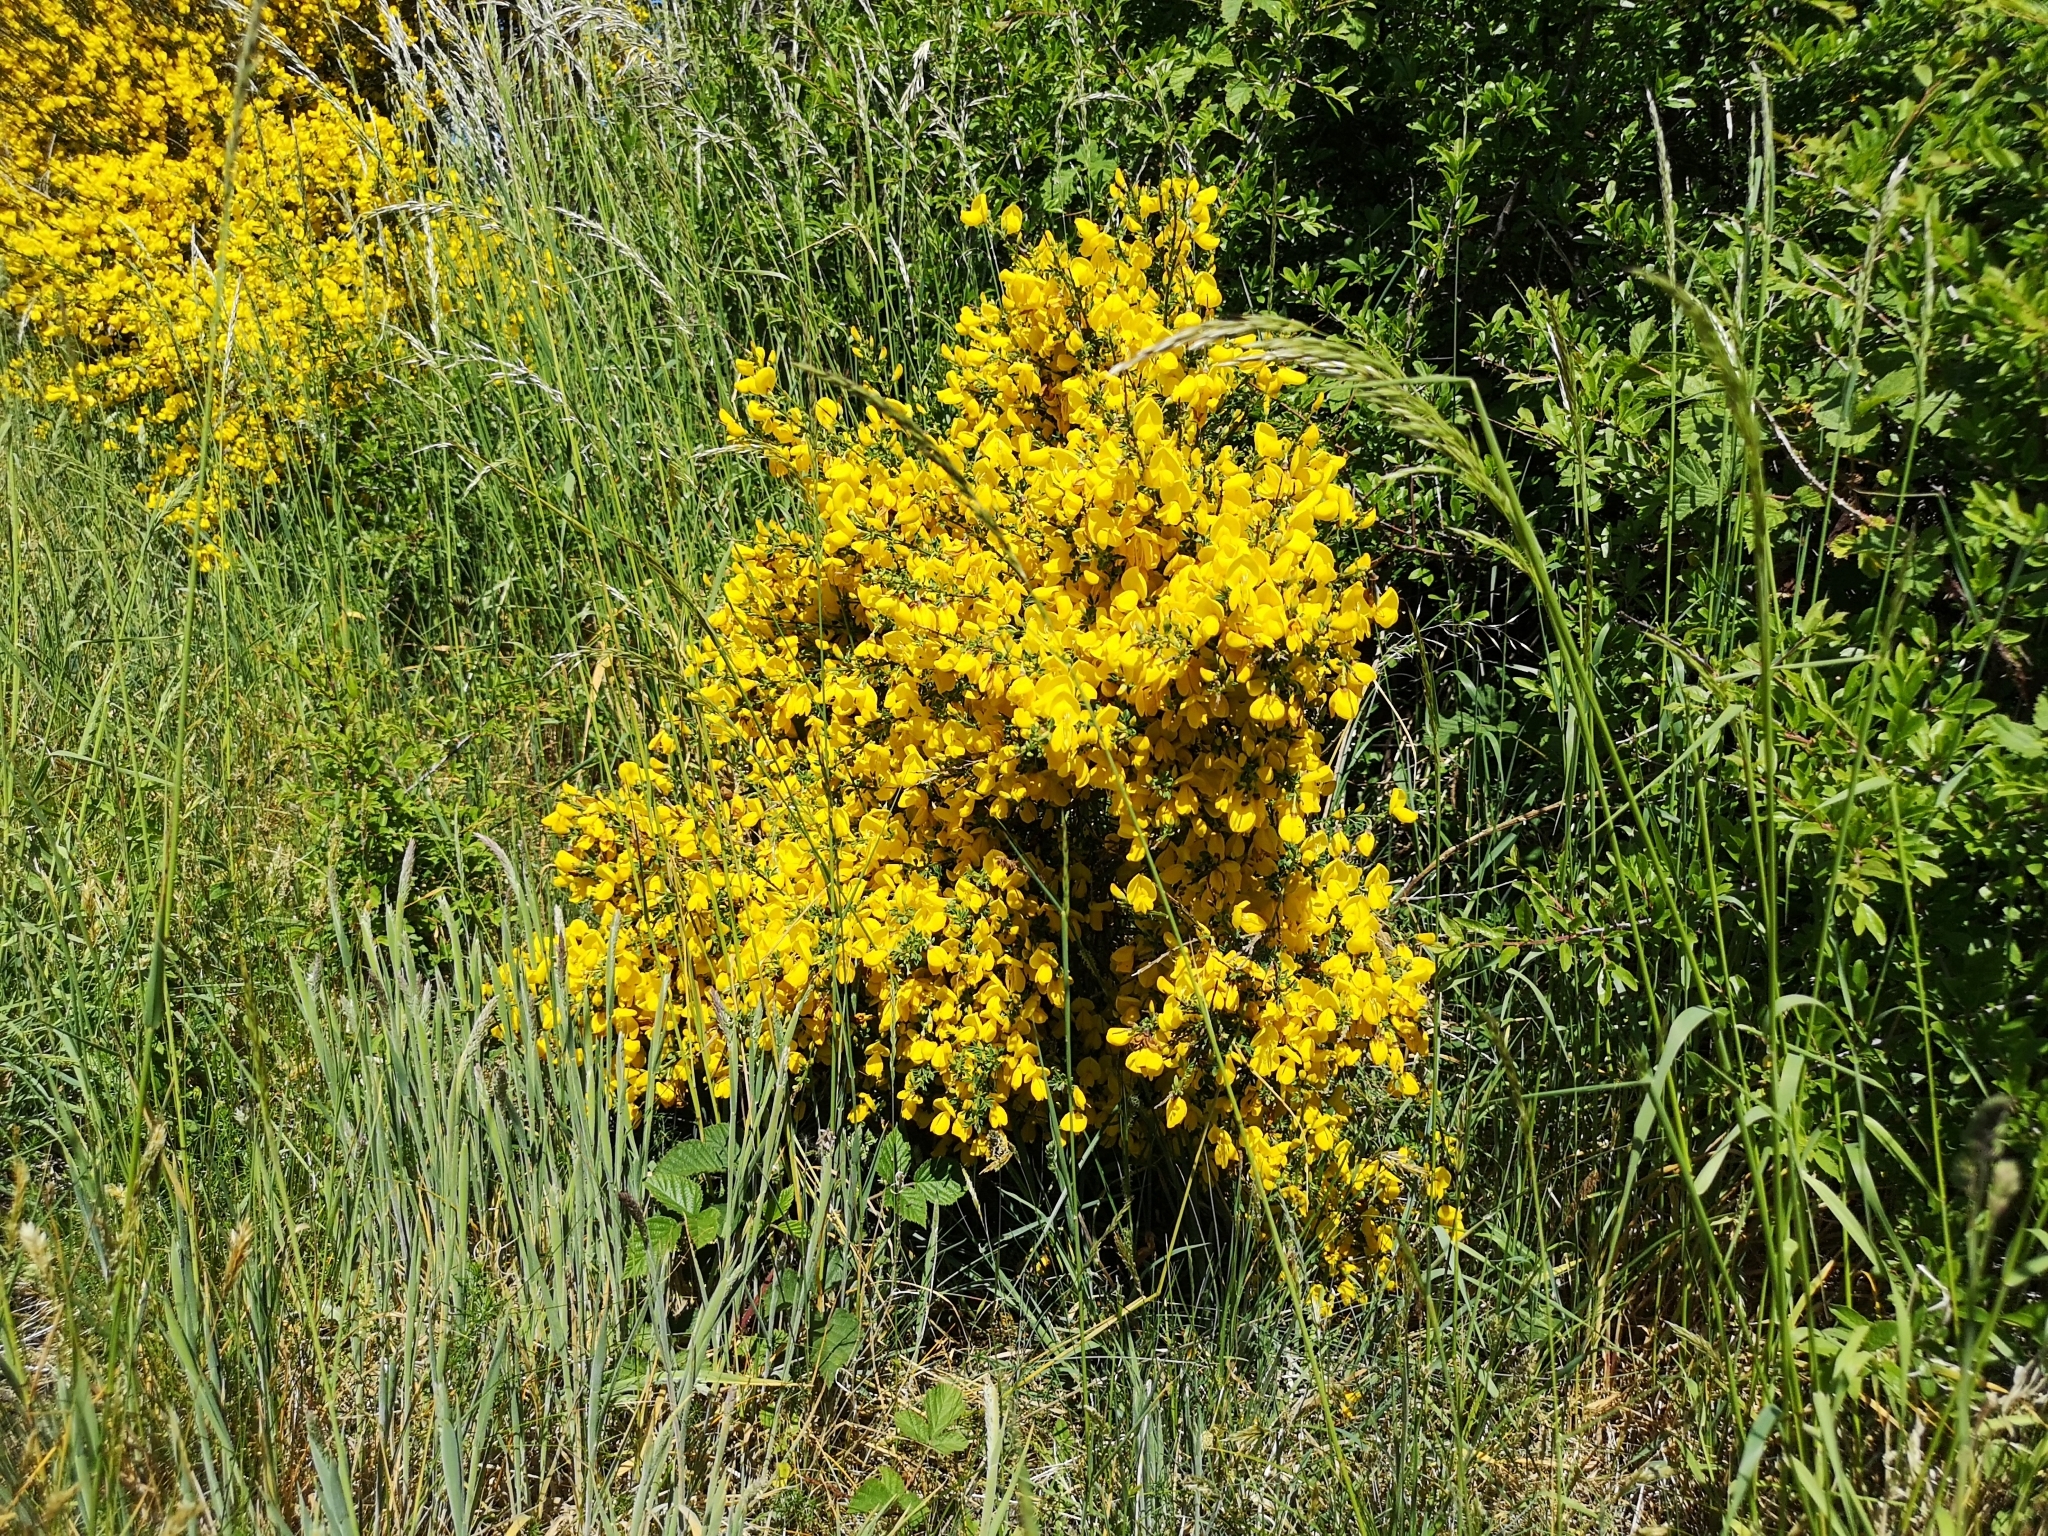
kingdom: Plantae
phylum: Tracheophyta
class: Magnoliopsida
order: Fabales
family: Fabaceae
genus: Cytisus
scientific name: Cytisus scoparius
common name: Scotch broom
